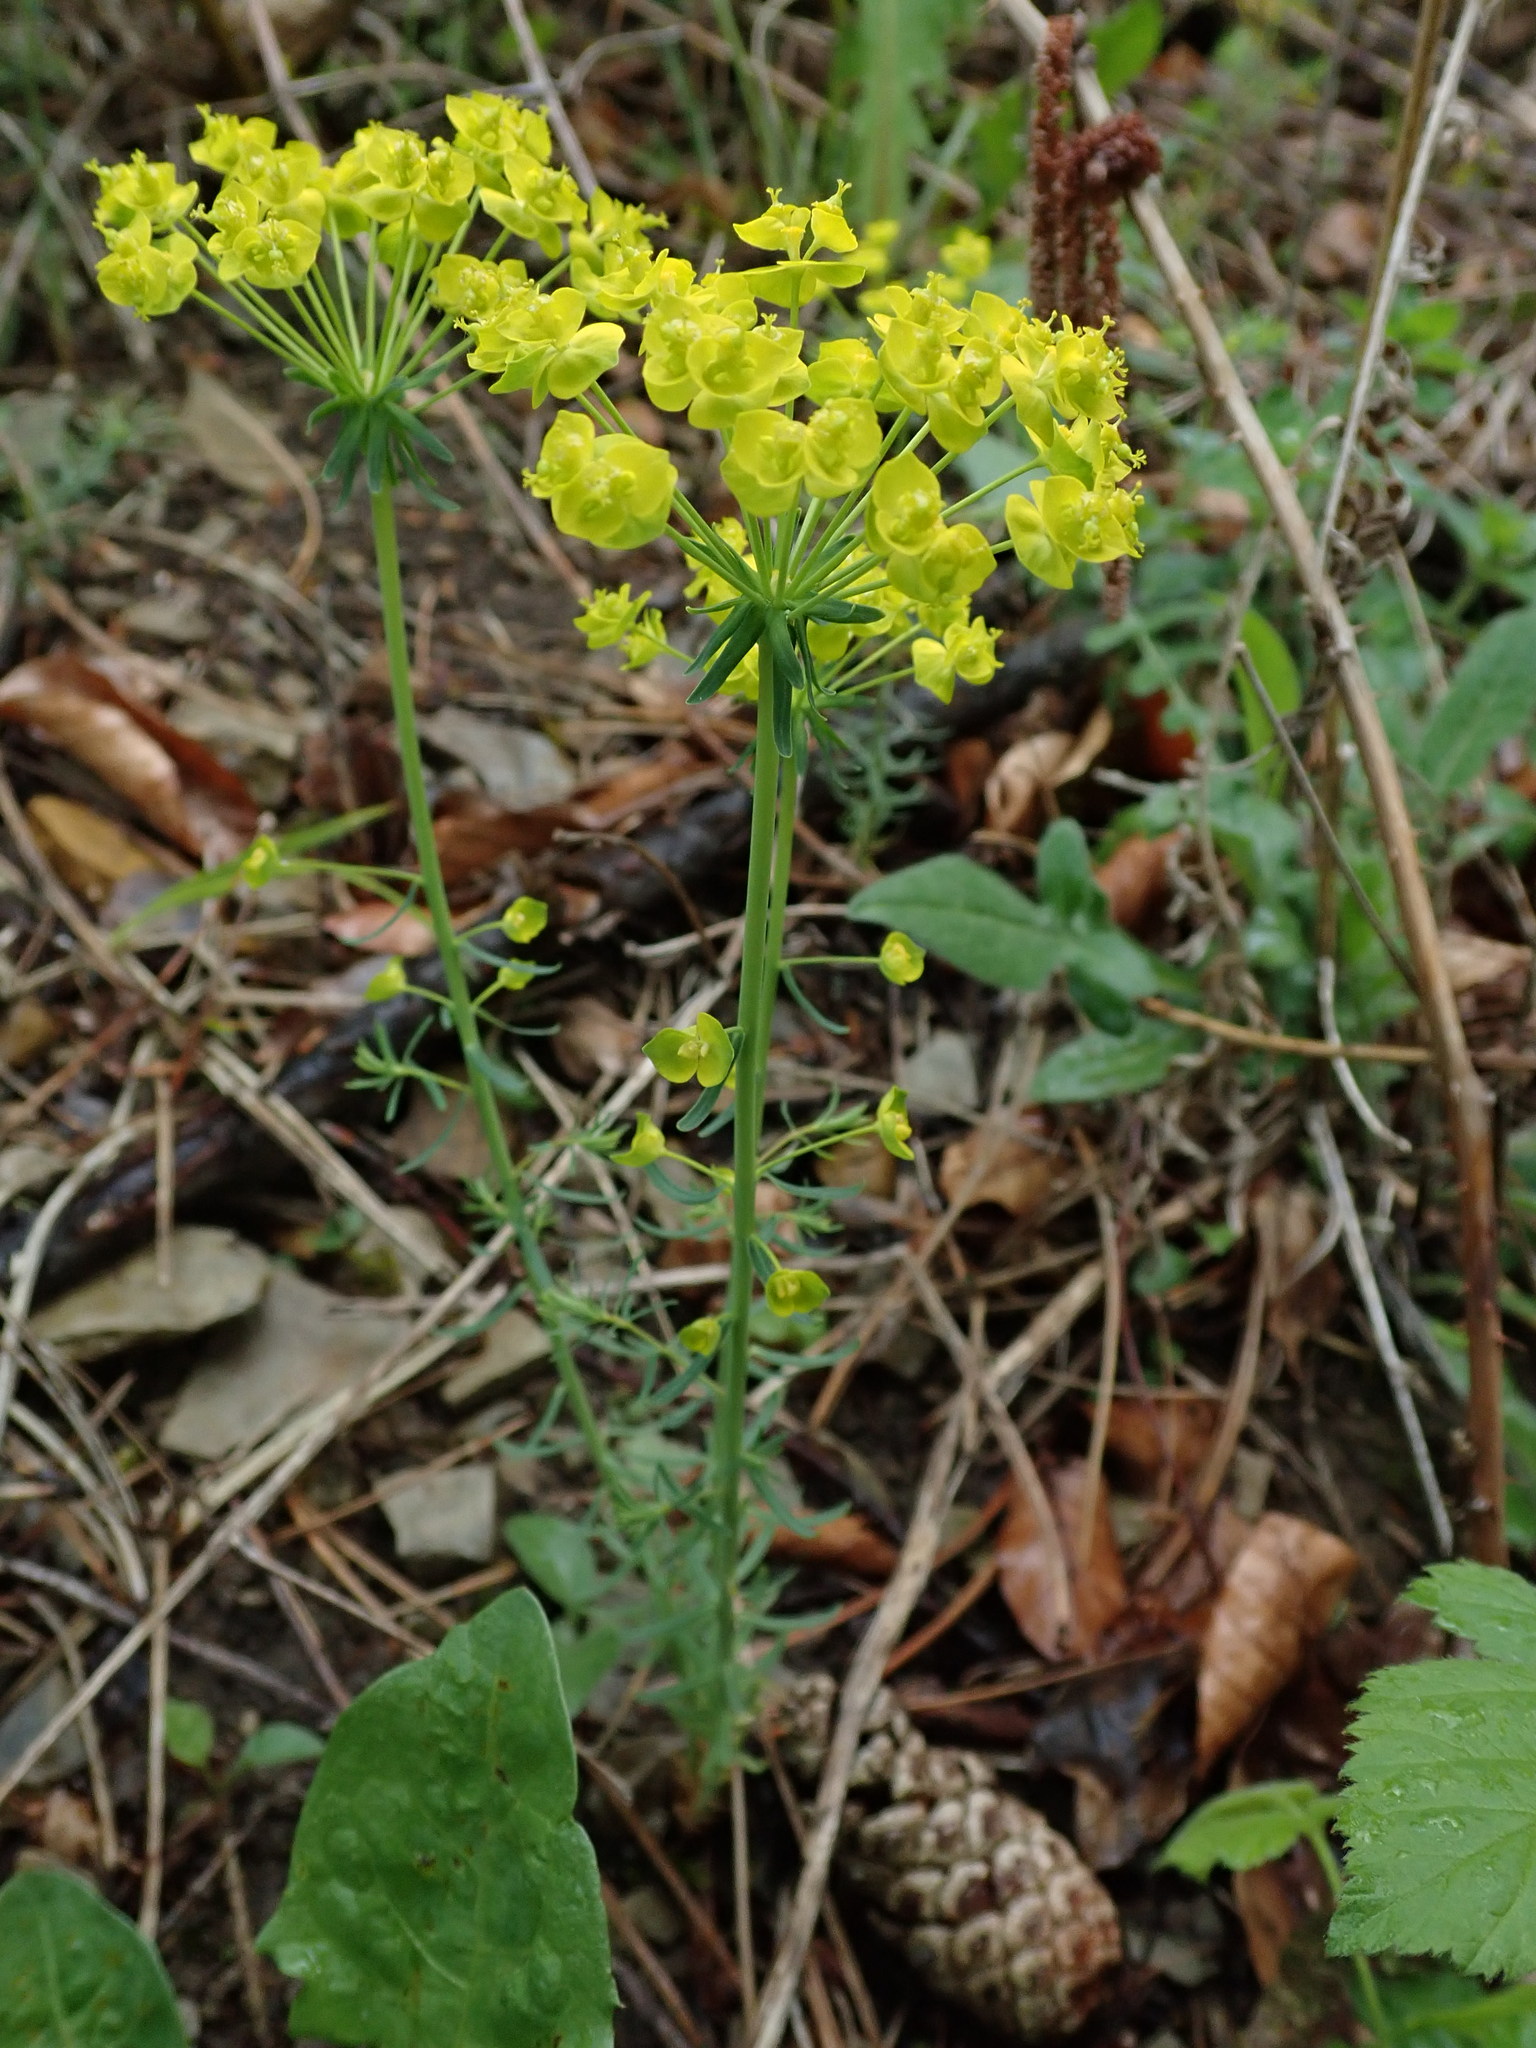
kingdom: Plantae
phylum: Tracheophyta
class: Magnoliopsida
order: Malpighiales
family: Euphorbiaceae
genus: Euphorbia
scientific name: Euphorbia cyparissias
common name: Cypress spurge
